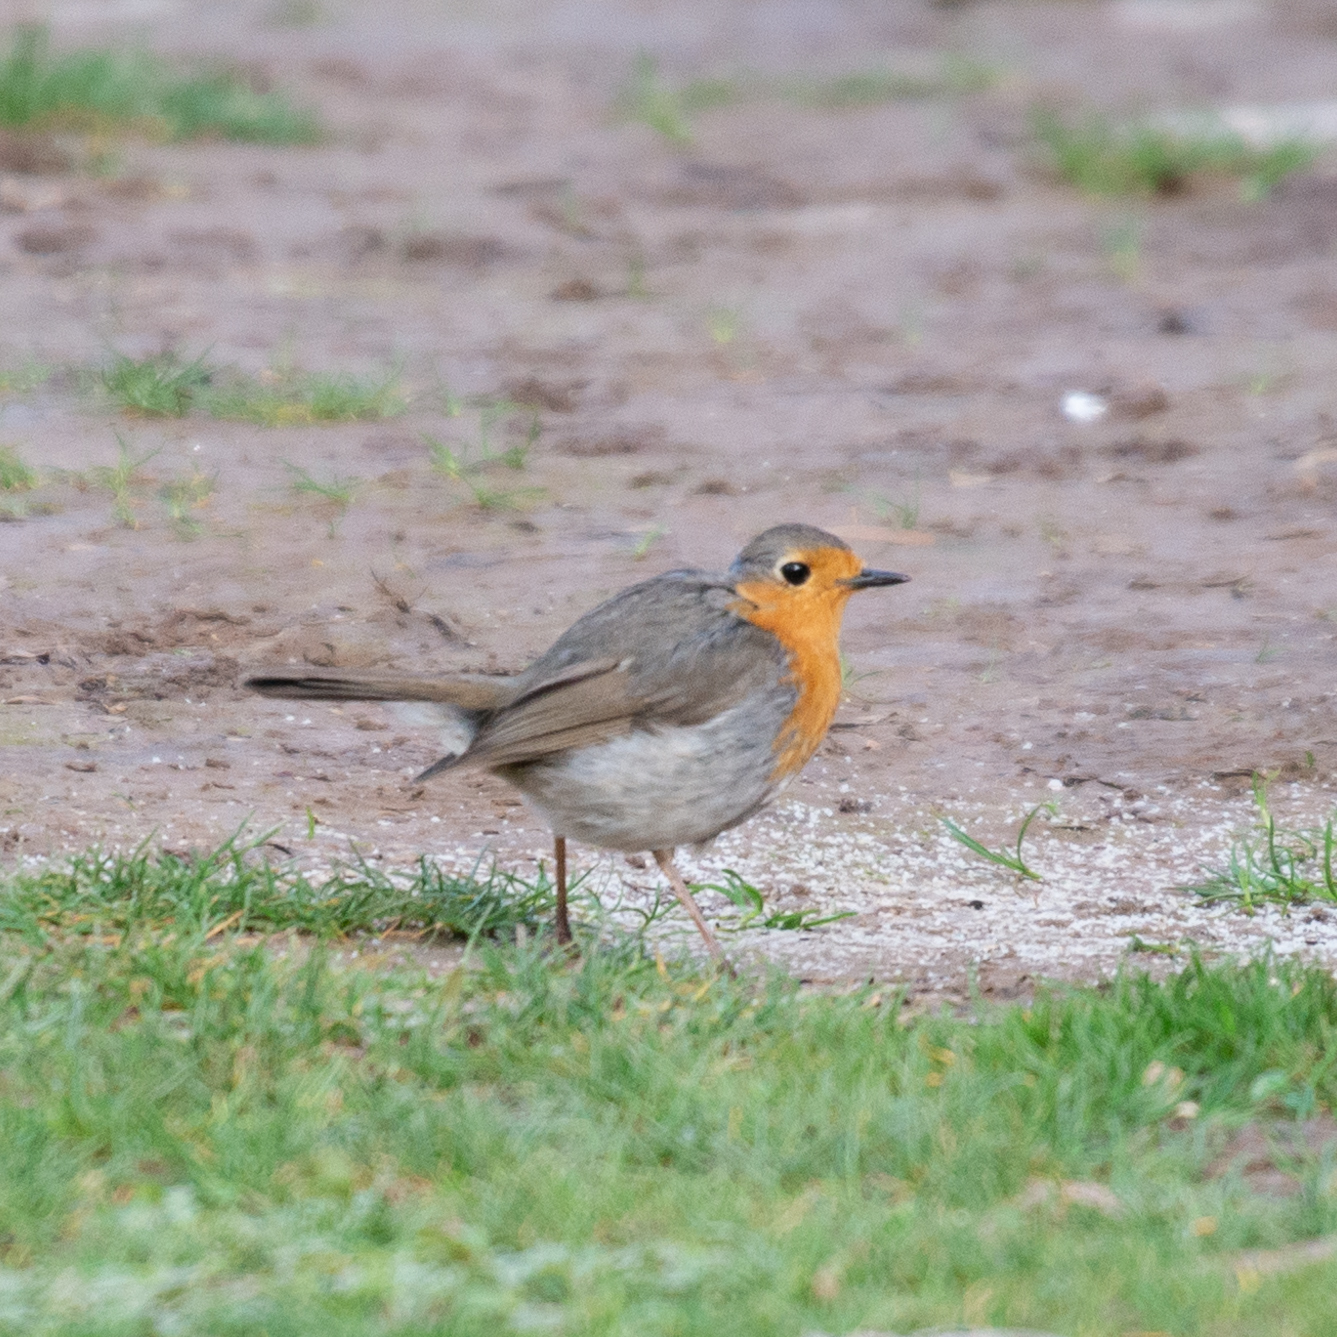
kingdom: Animalia
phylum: Chordata
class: Aves
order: Passeriformes
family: Muscicapidae
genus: Erithacus
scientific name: Erithacus rubecula
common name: European robin
